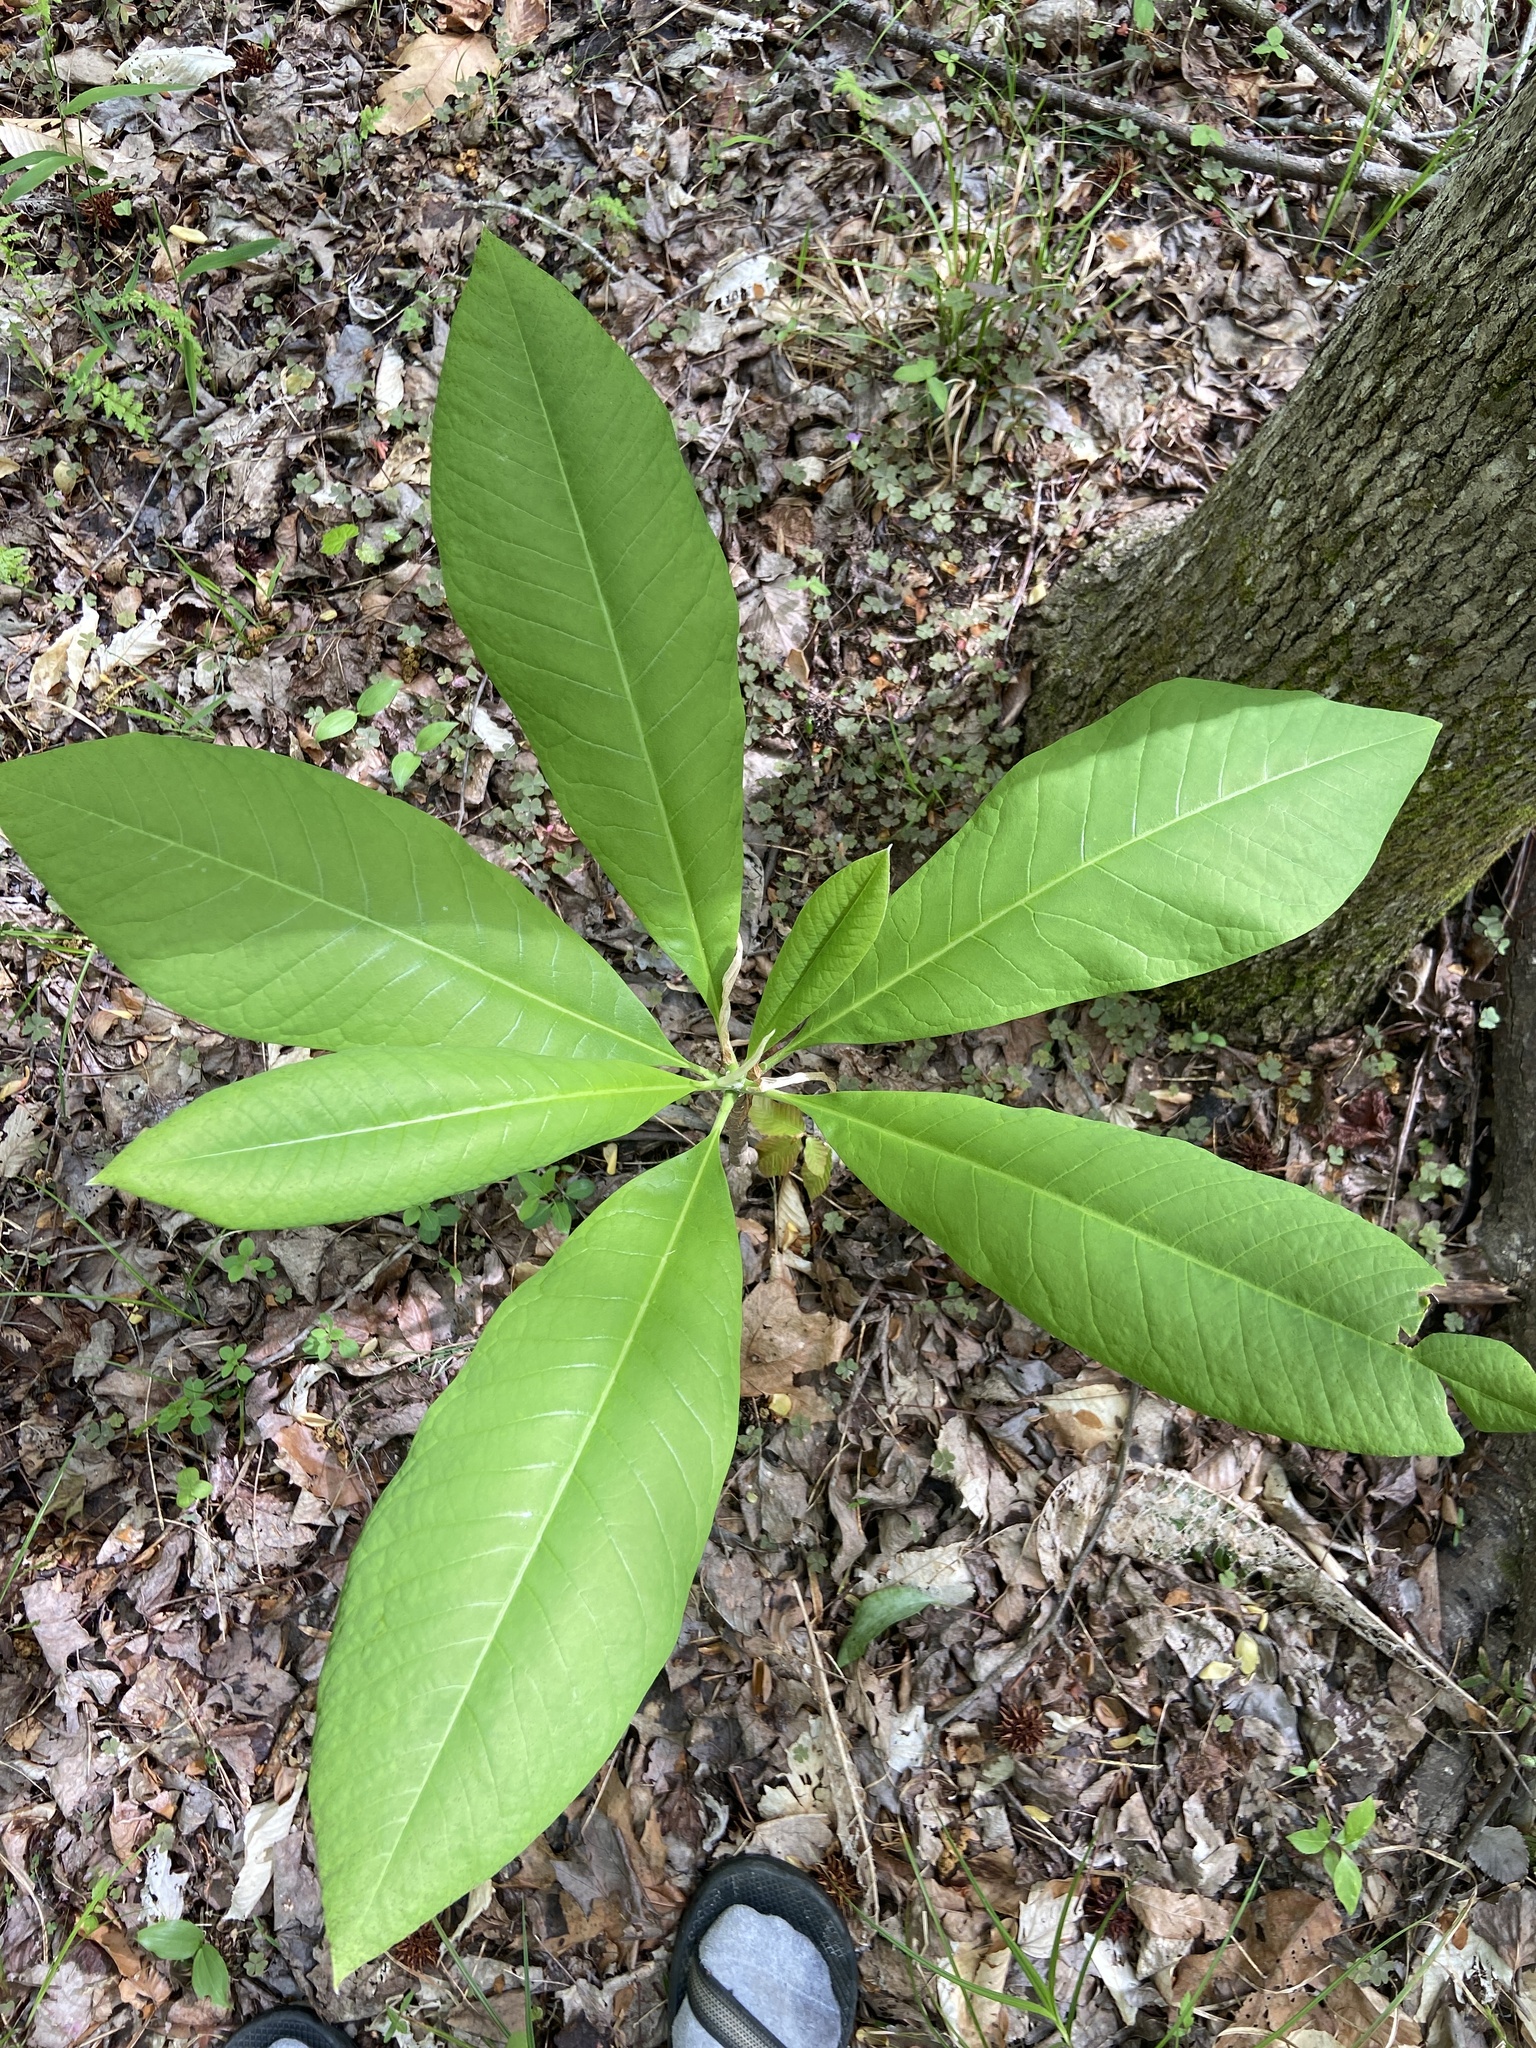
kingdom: Plantae
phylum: Tracheophyta
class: Magnoliopsida
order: Magnoliales
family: Magnoliaceae
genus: Magnolia
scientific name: Magnolia tripetala
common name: Umbrella magnolia
